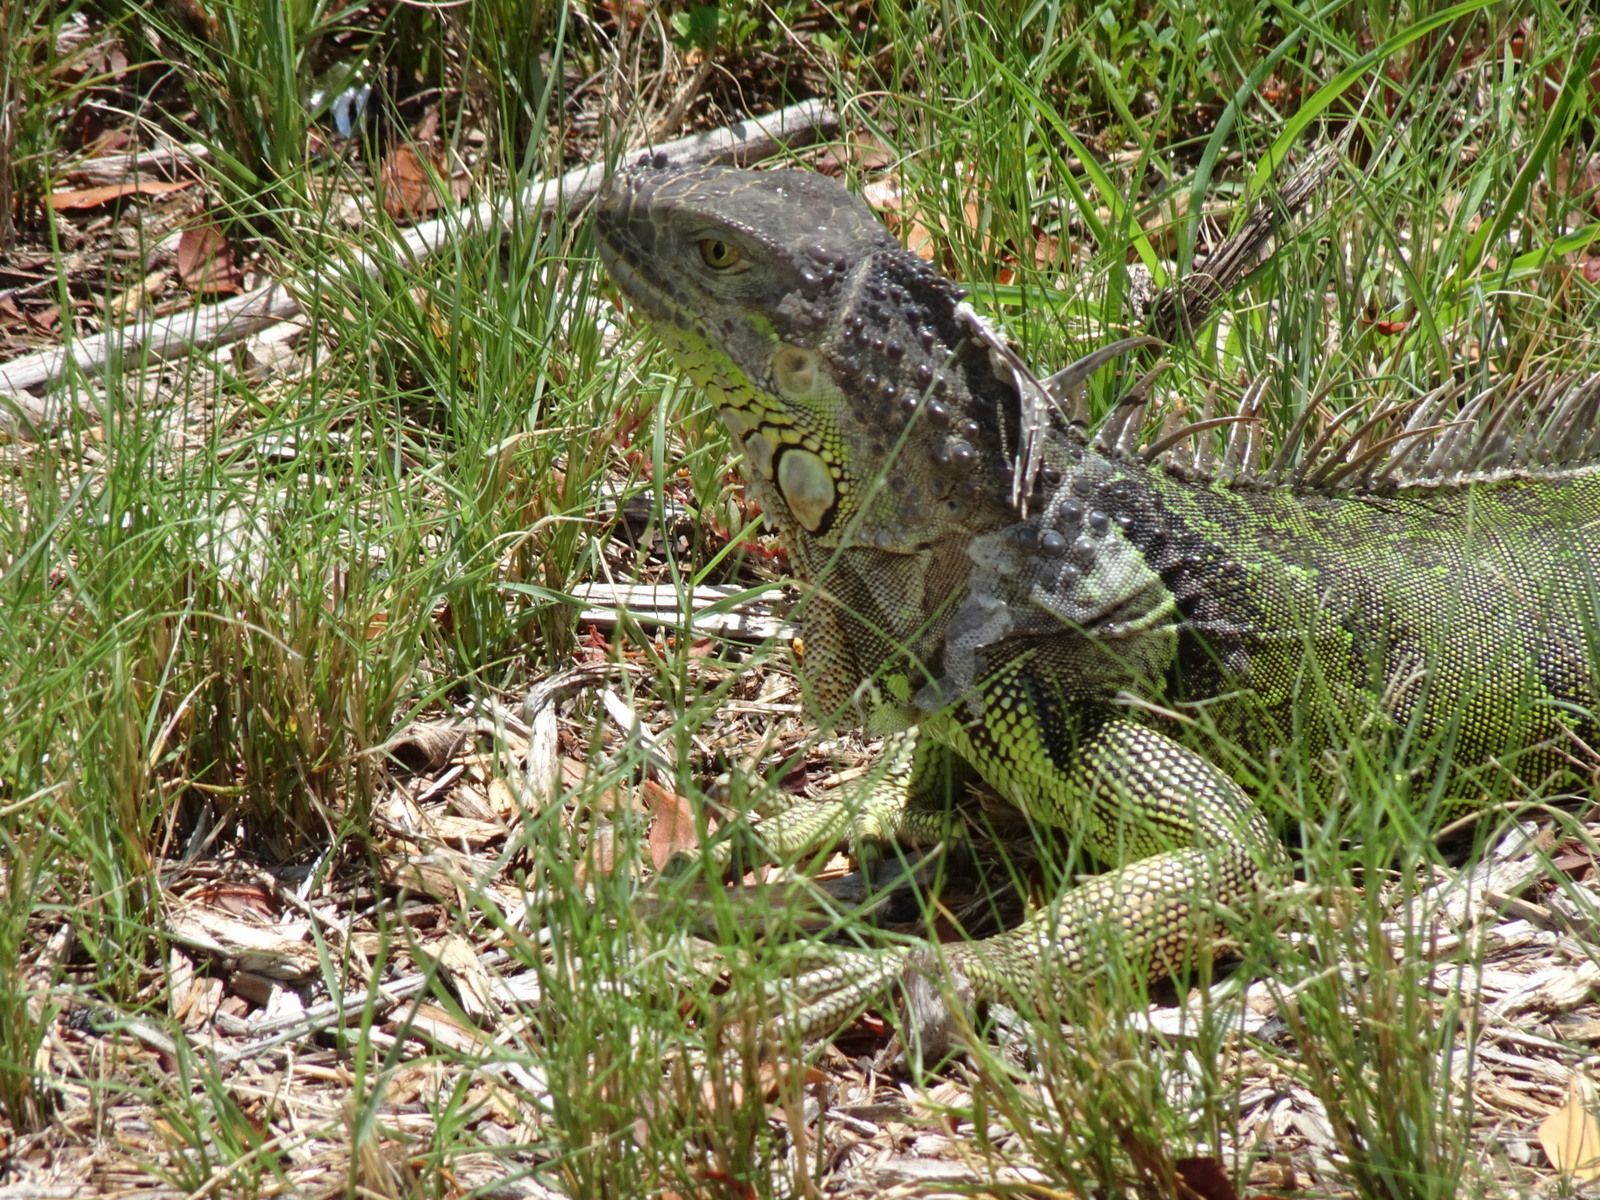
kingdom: Animalia
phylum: Chordata
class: Squamata
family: Iguanidae
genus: Iguana
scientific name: Iguana iguana
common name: Green iguana
